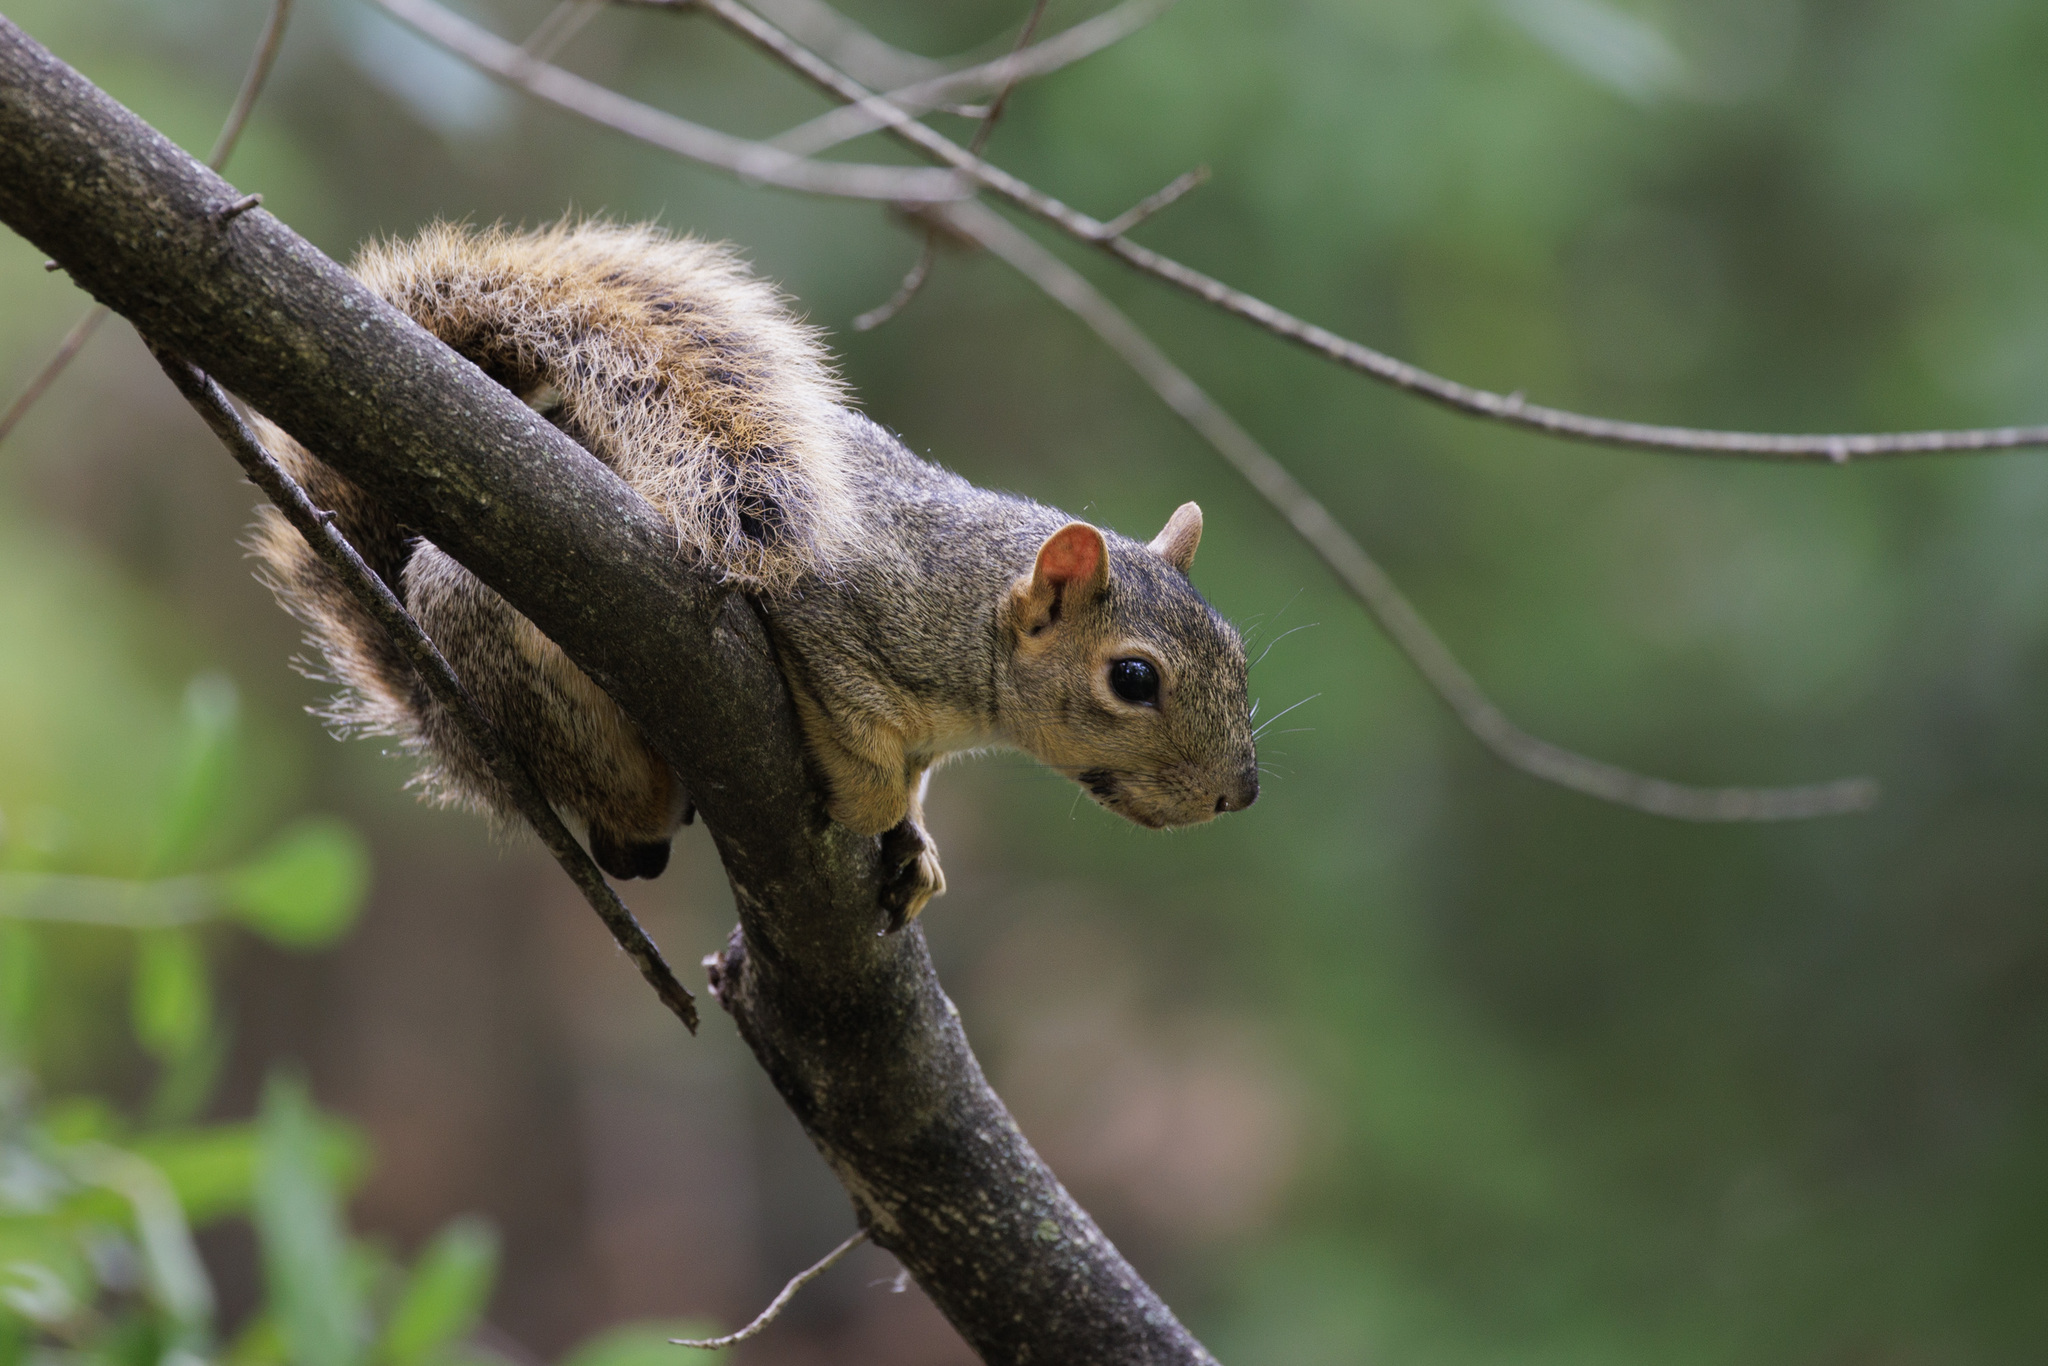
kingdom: Animalia
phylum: Chordata
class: Mammalia
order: Rodentia
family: Sciuridae
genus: Sciurus
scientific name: Sciurus niger
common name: Fox squirrel
